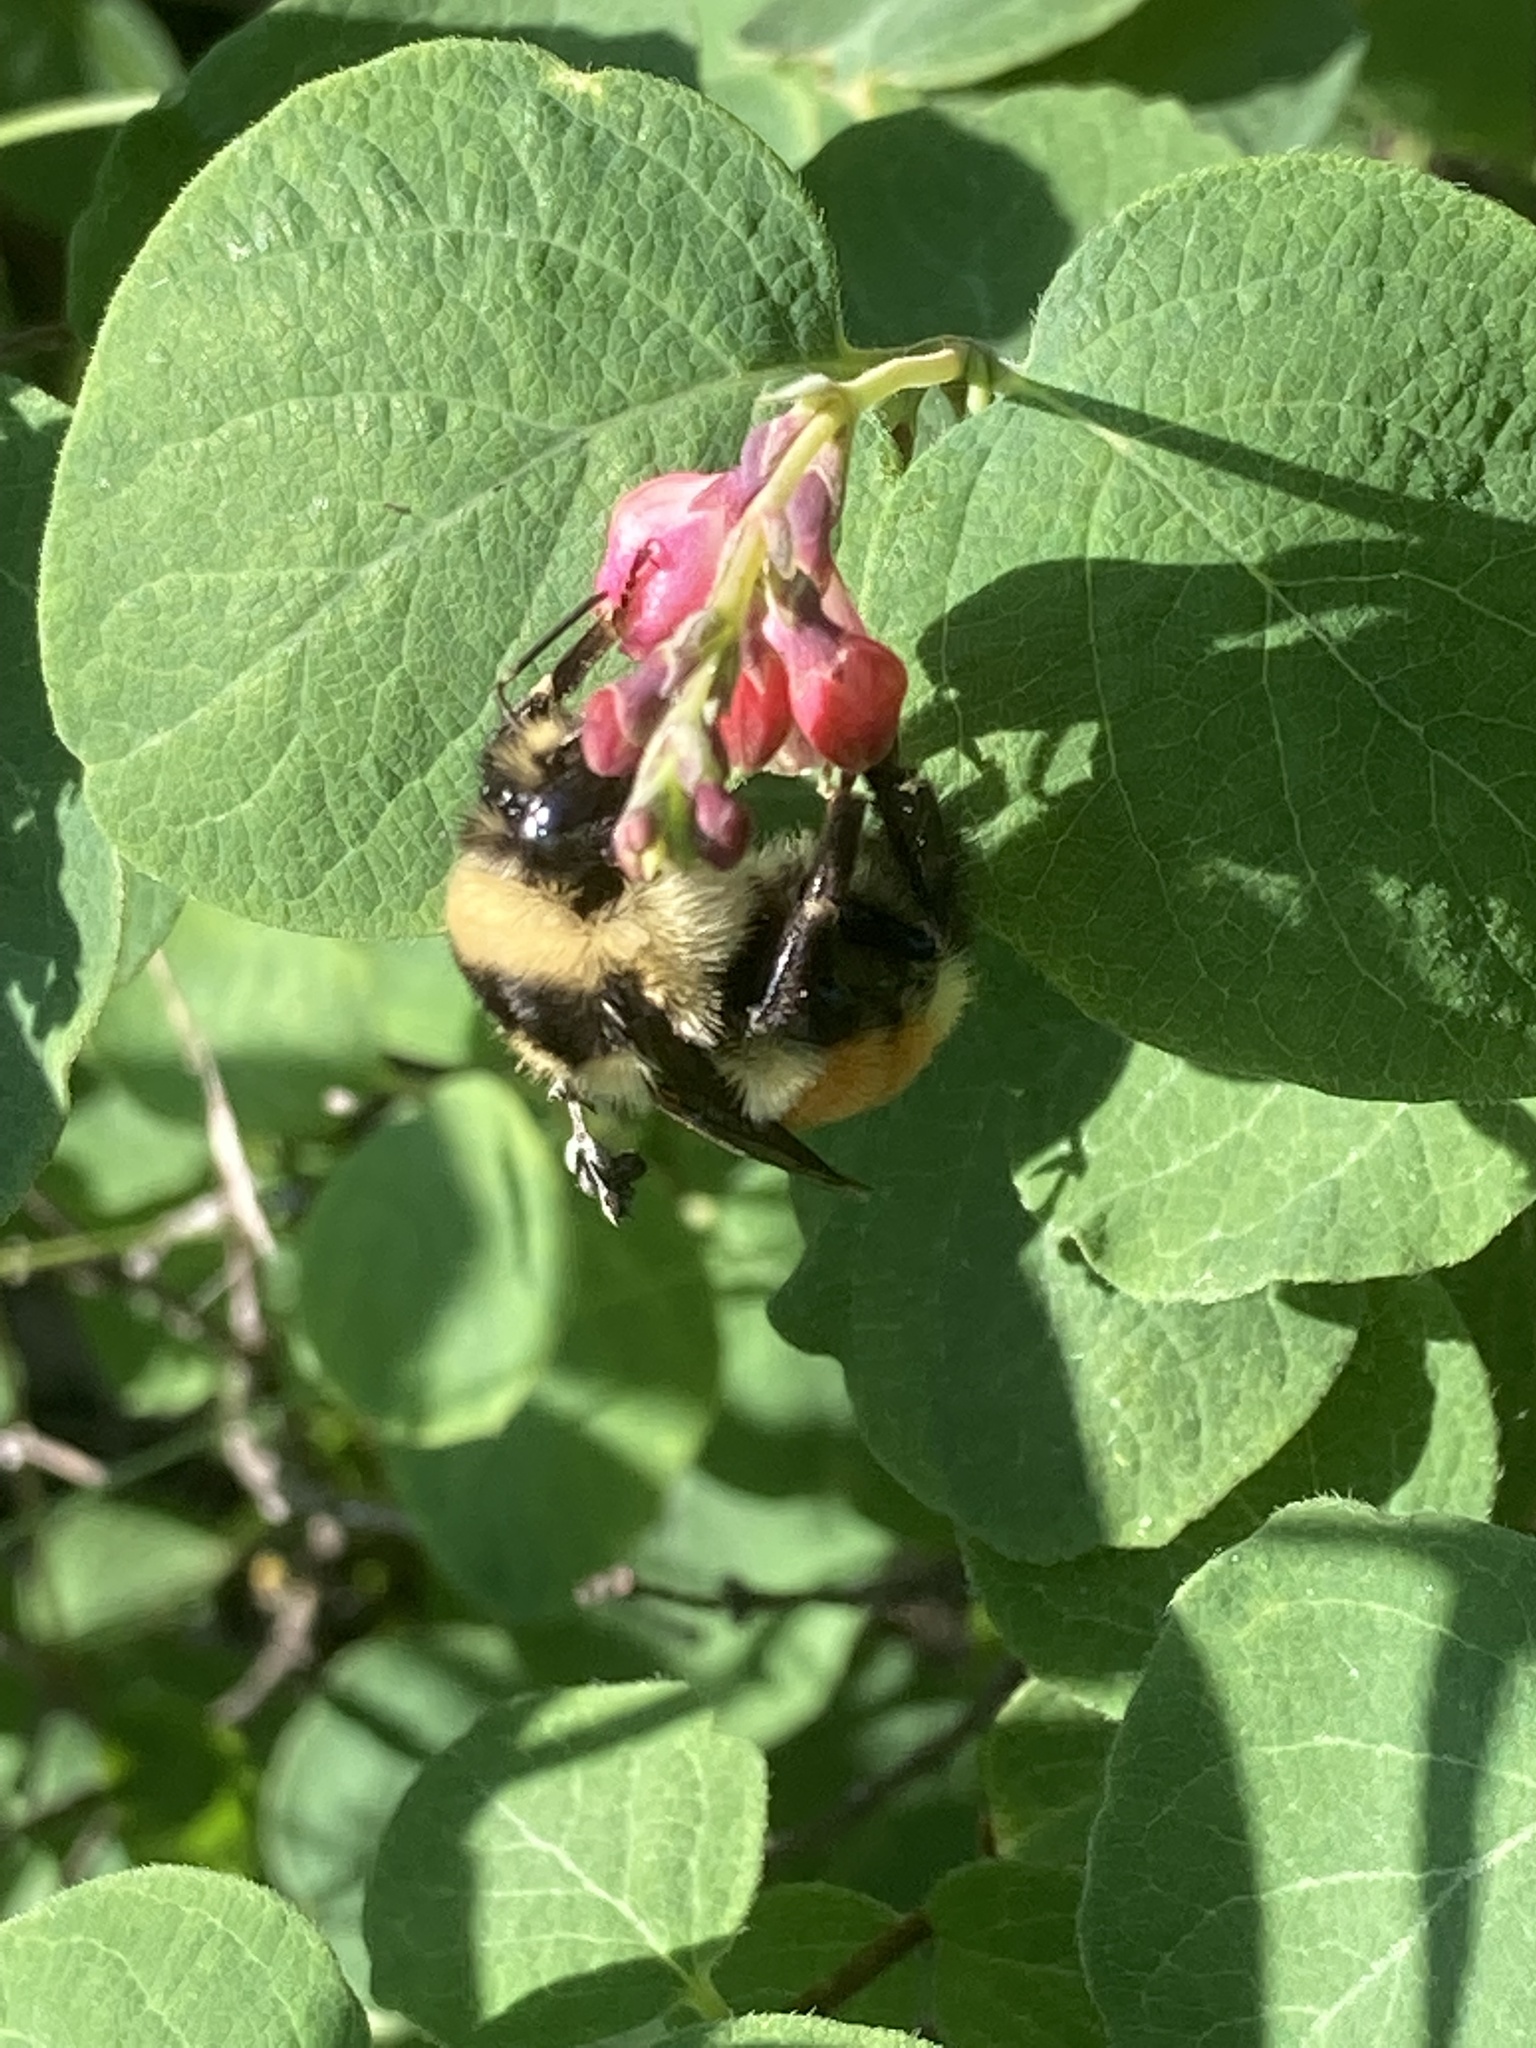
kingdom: Animalia
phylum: Arthropoda
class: Insecta
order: Hymenoptera
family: Apidae
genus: Bombus
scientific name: Bombus ternarius
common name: Tri-colored bumble bee
